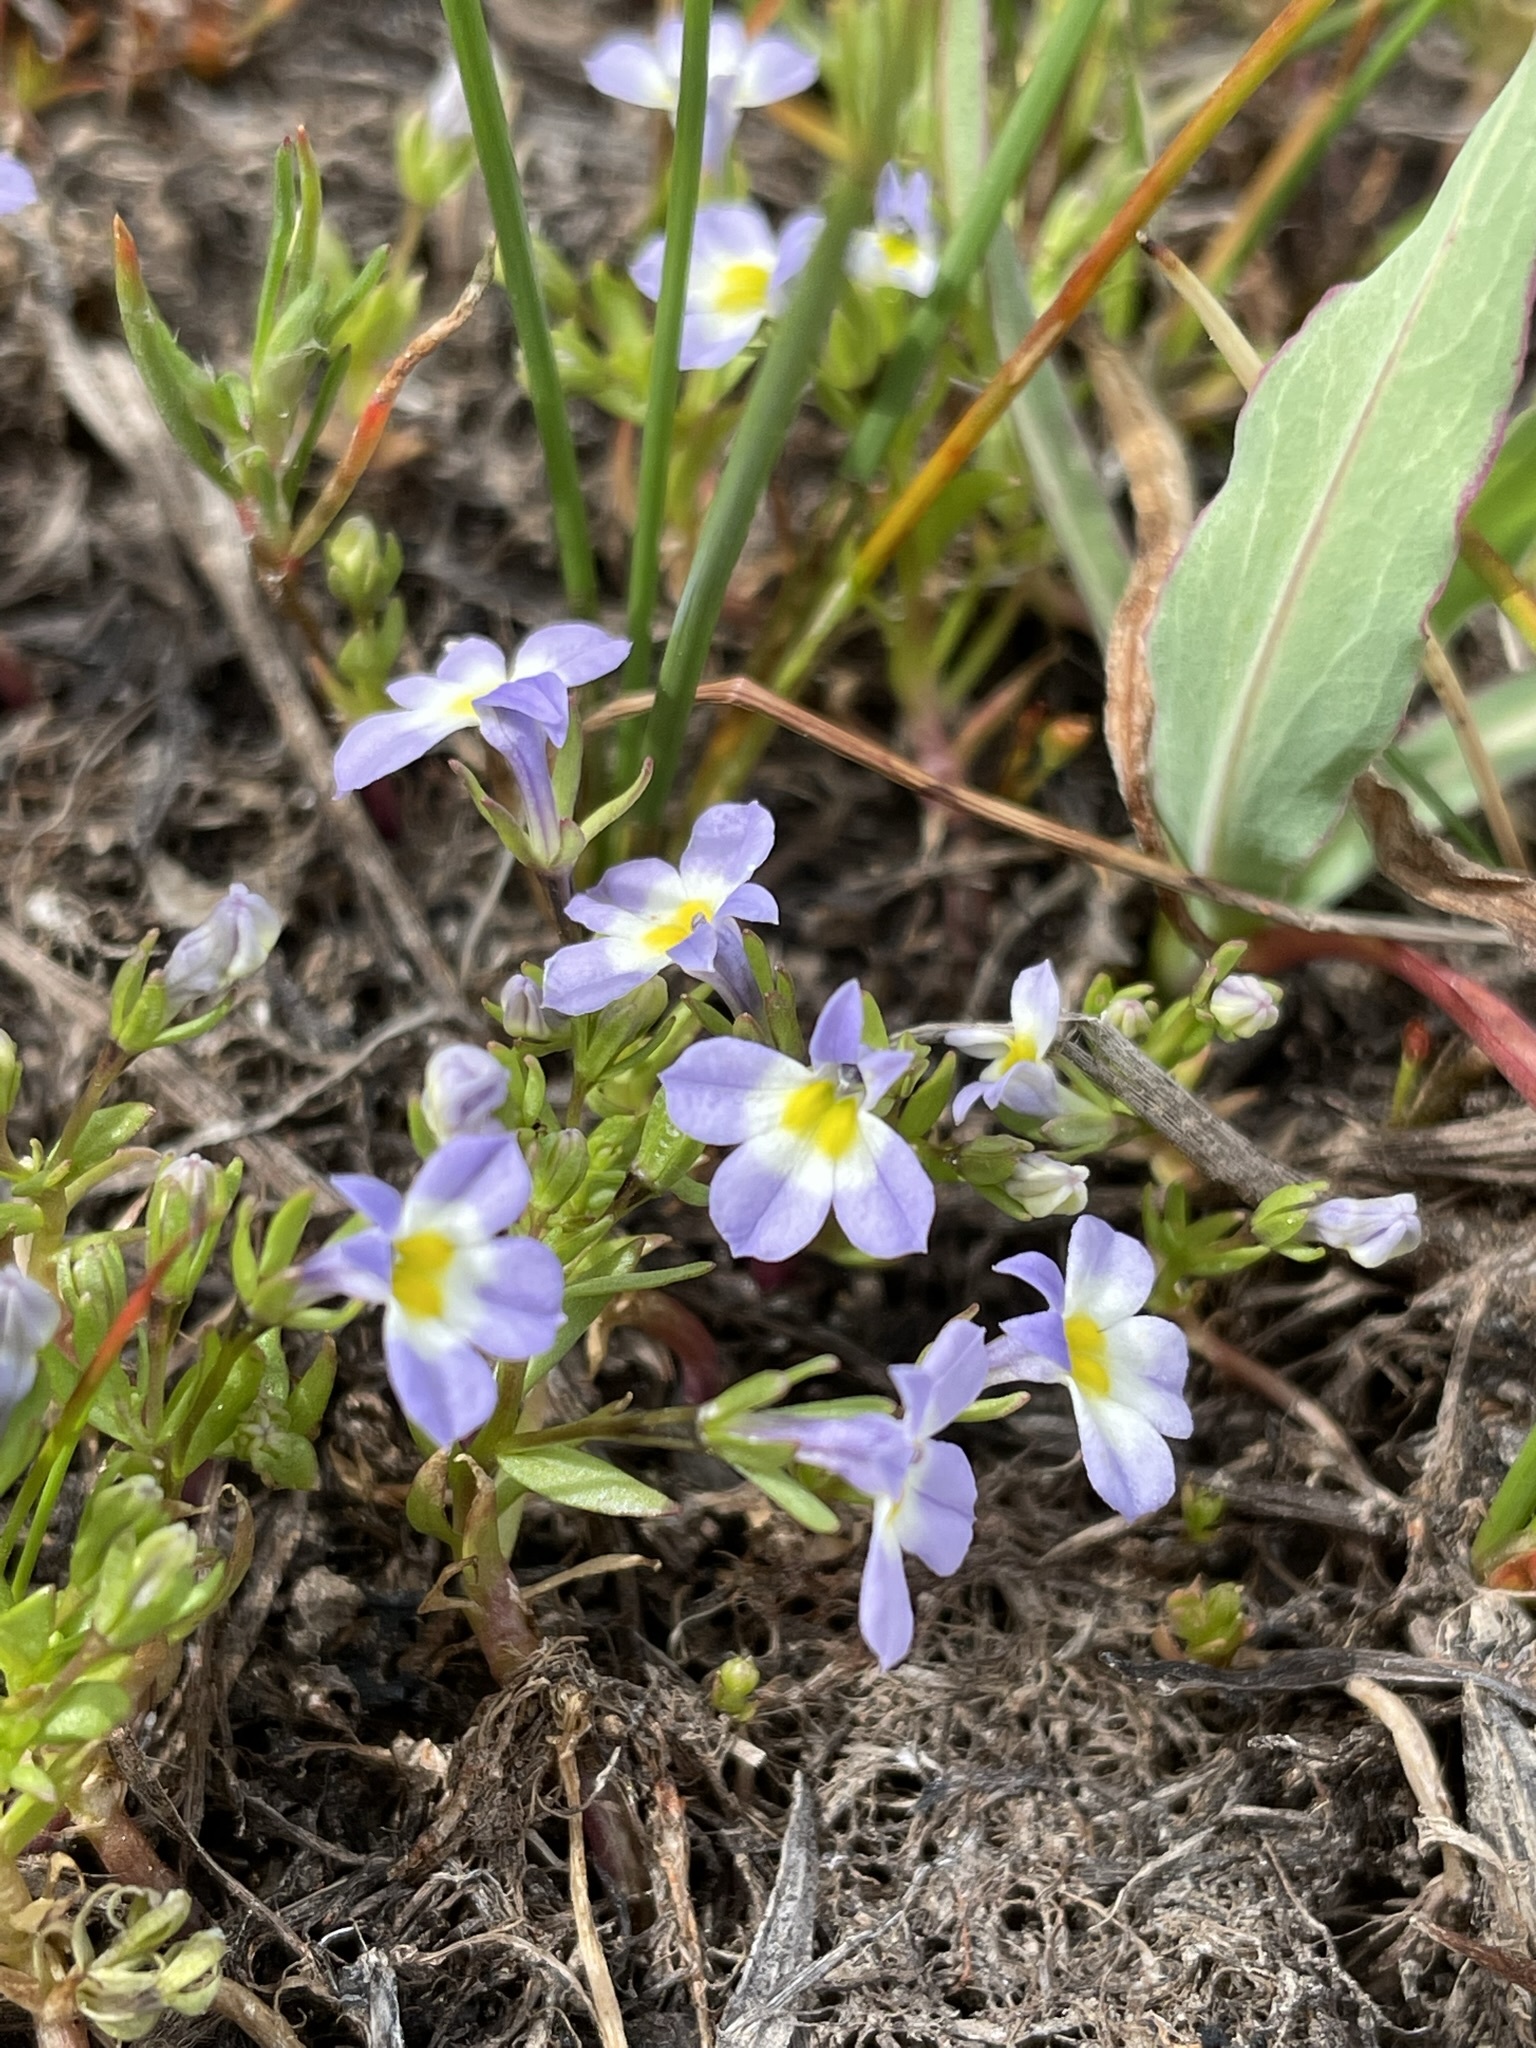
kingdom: Plantae
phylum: Tracheophyta
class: Magnoliopsida
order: Asterales
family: Campanulaceae
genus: Downingia
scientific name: Downingia cuspidata
